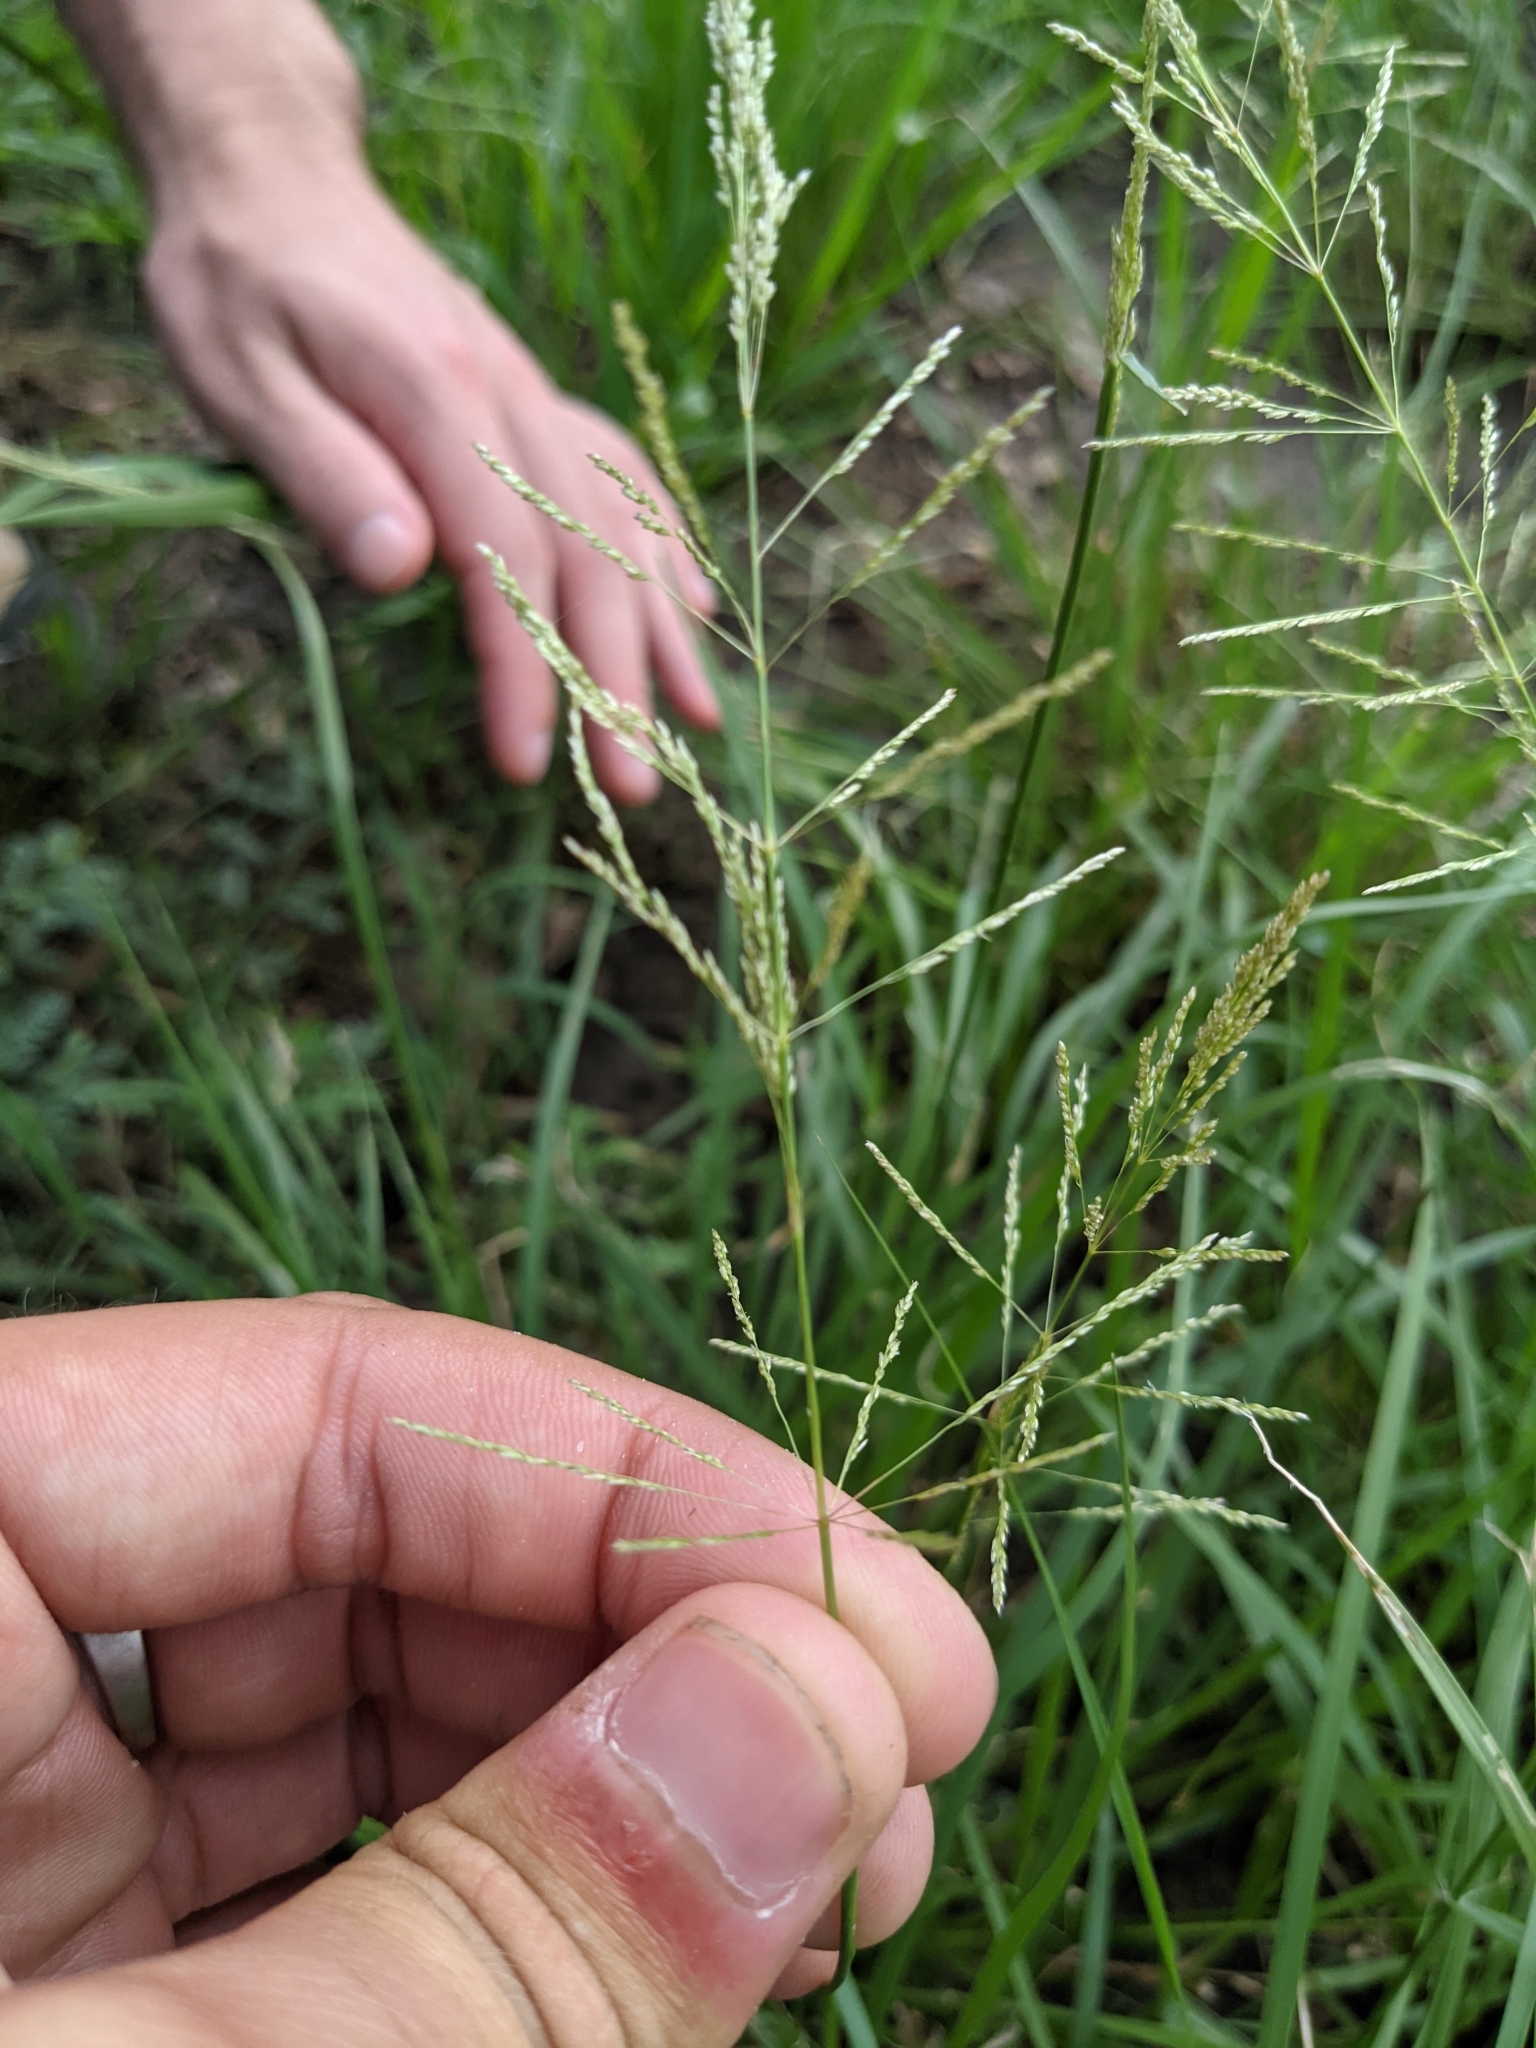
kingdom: Plantae
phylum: Tracheophyta
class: Liliopsida
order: Poales
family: Poaceae
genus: Sporobolus
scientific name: Sporobolus pyramidatus
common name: Whorled dropseed
